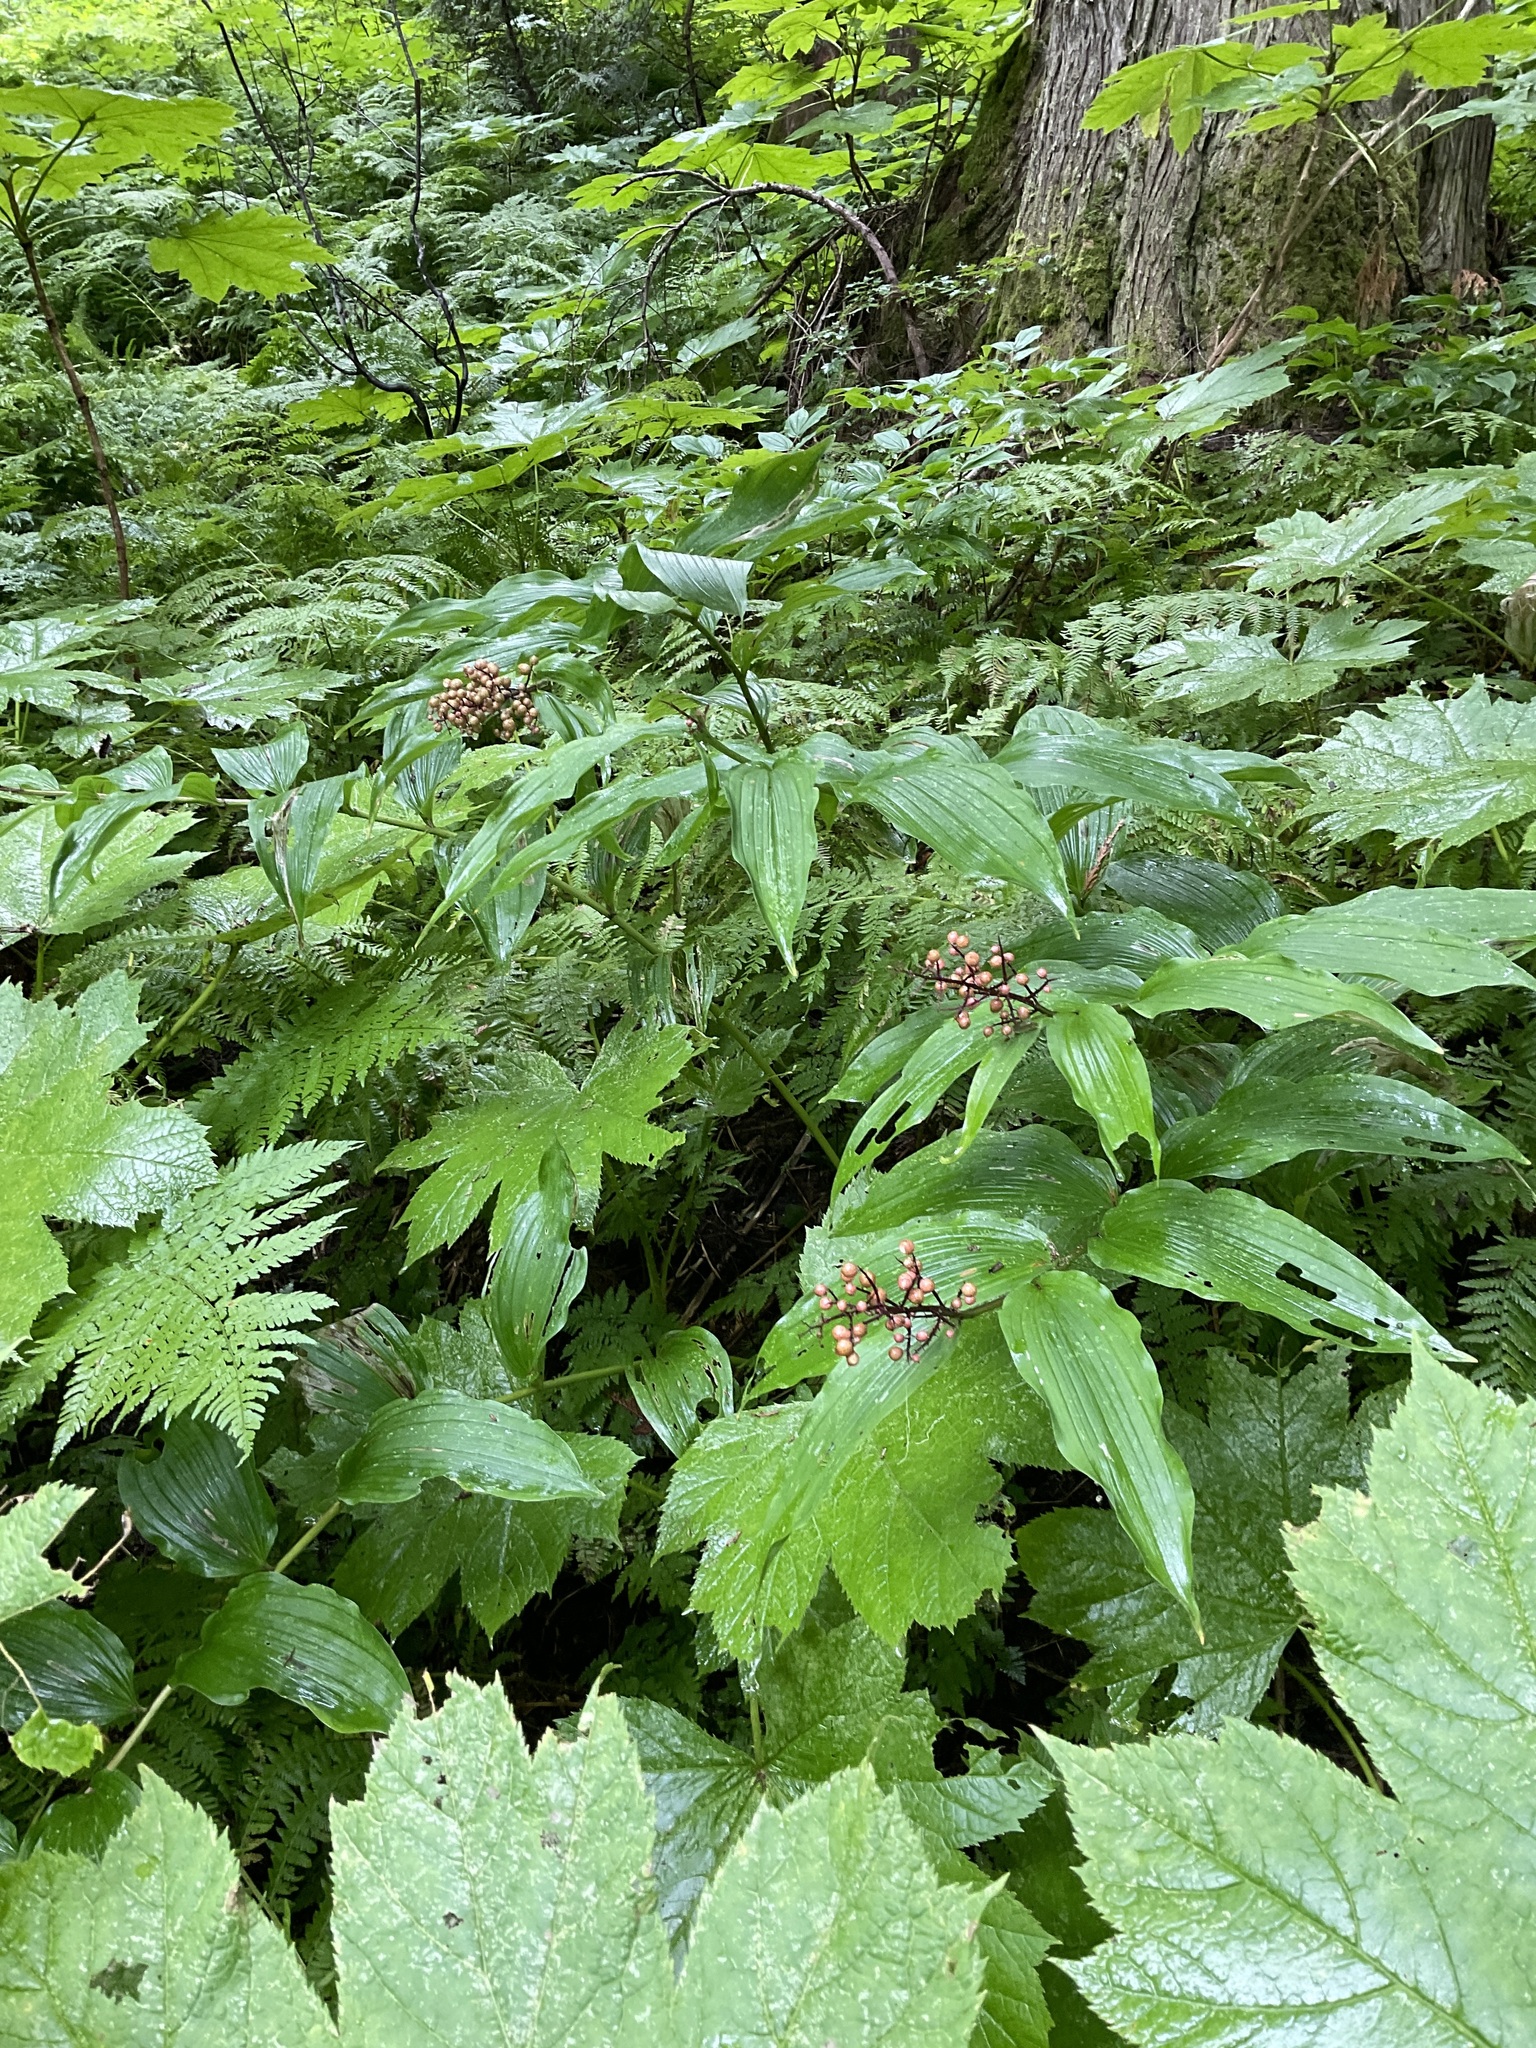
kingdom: Plantae
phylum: Tracheophyta
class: Liliopsida
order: Asparagales
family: Asparagaceae
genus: Maianthemum
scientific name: Maianthemum racemosum
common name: False spikenard
